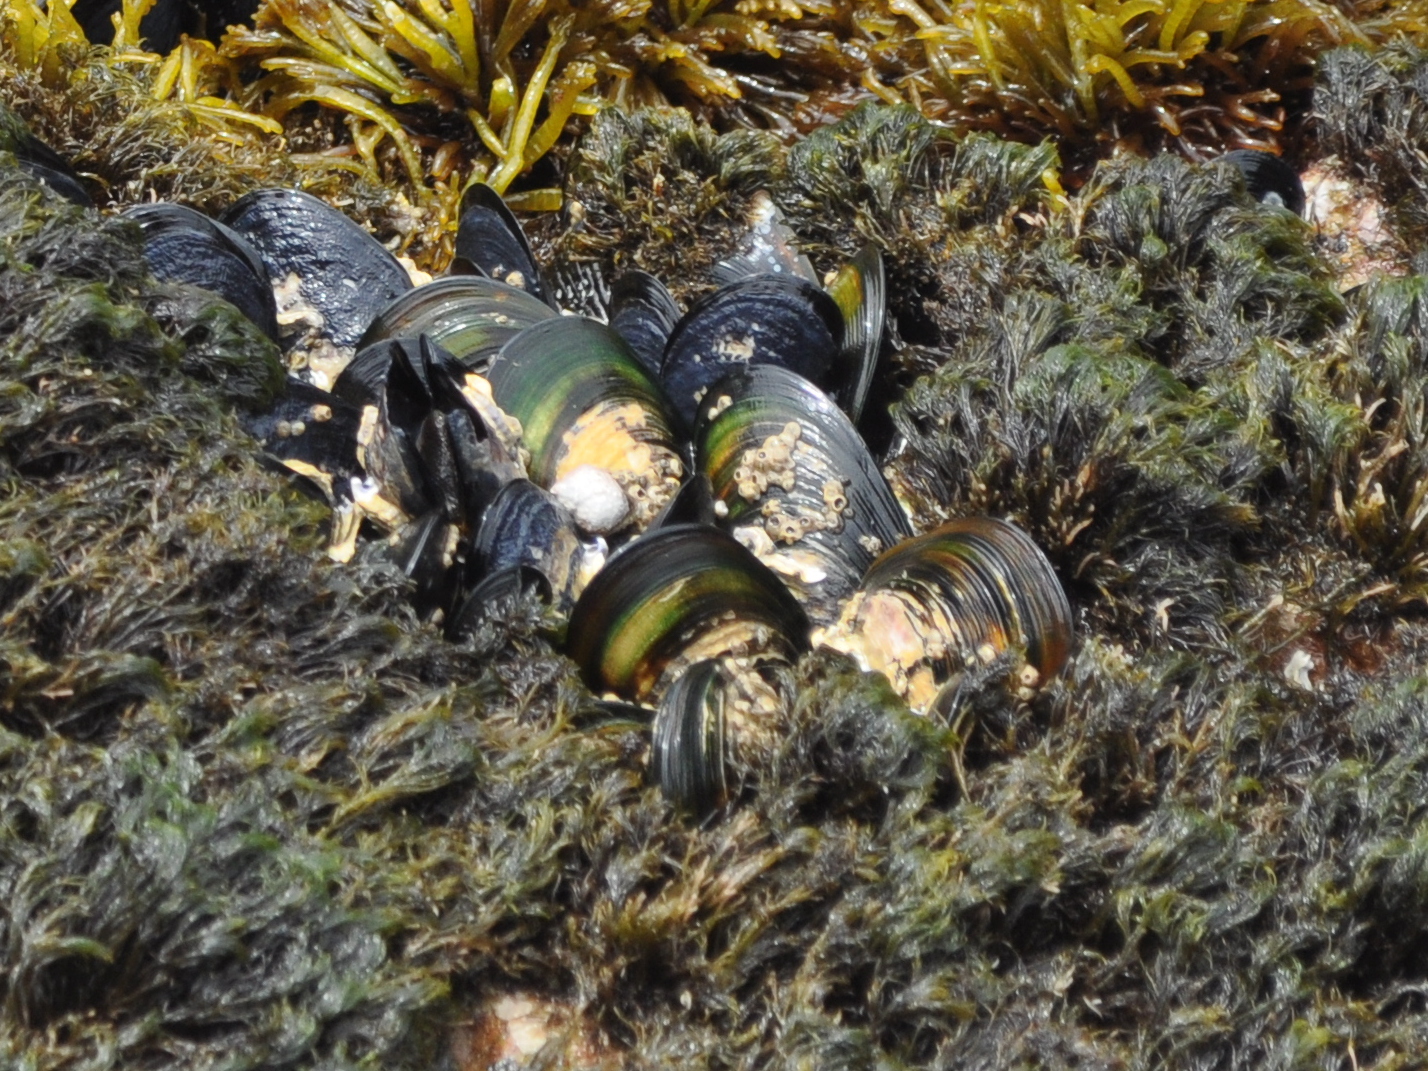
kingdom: Animalia
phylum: Mollusca
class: Bivalvia
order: Mytilida
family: Mytilidae
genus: Perna
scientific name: Perna canaliculus
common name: New zealand greenshelltm
